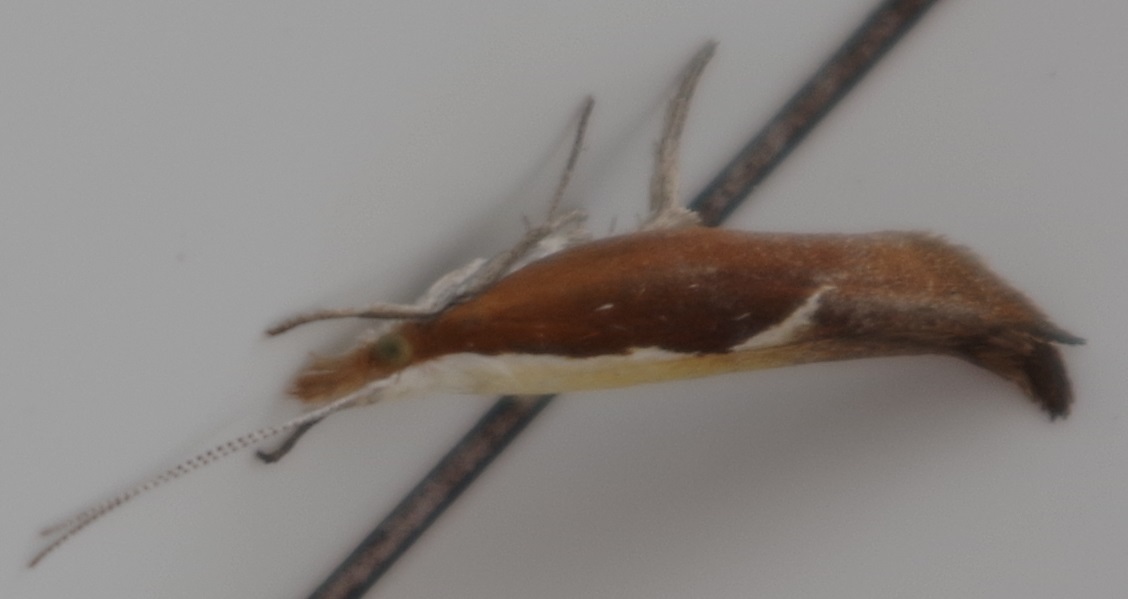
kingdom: Animalia
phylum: Arthropoda
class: Insecta
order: Lepidoptera
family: Ypsolophidae
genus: Ypsolopha
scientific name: Ypsolopha dentella
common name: Honeysuckle moth
